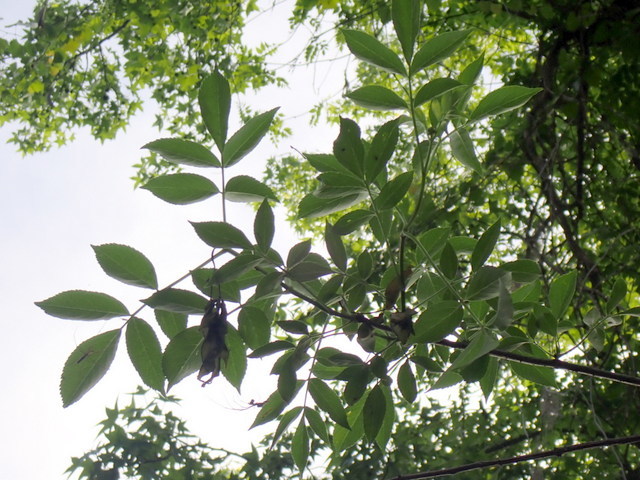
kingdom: Plantae
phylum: Tracheophyta
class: Magnoliopsida
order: Dipsacales
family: Viburnaceae
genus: Sambucus
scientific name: Sambucus canadensis
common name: American elder
